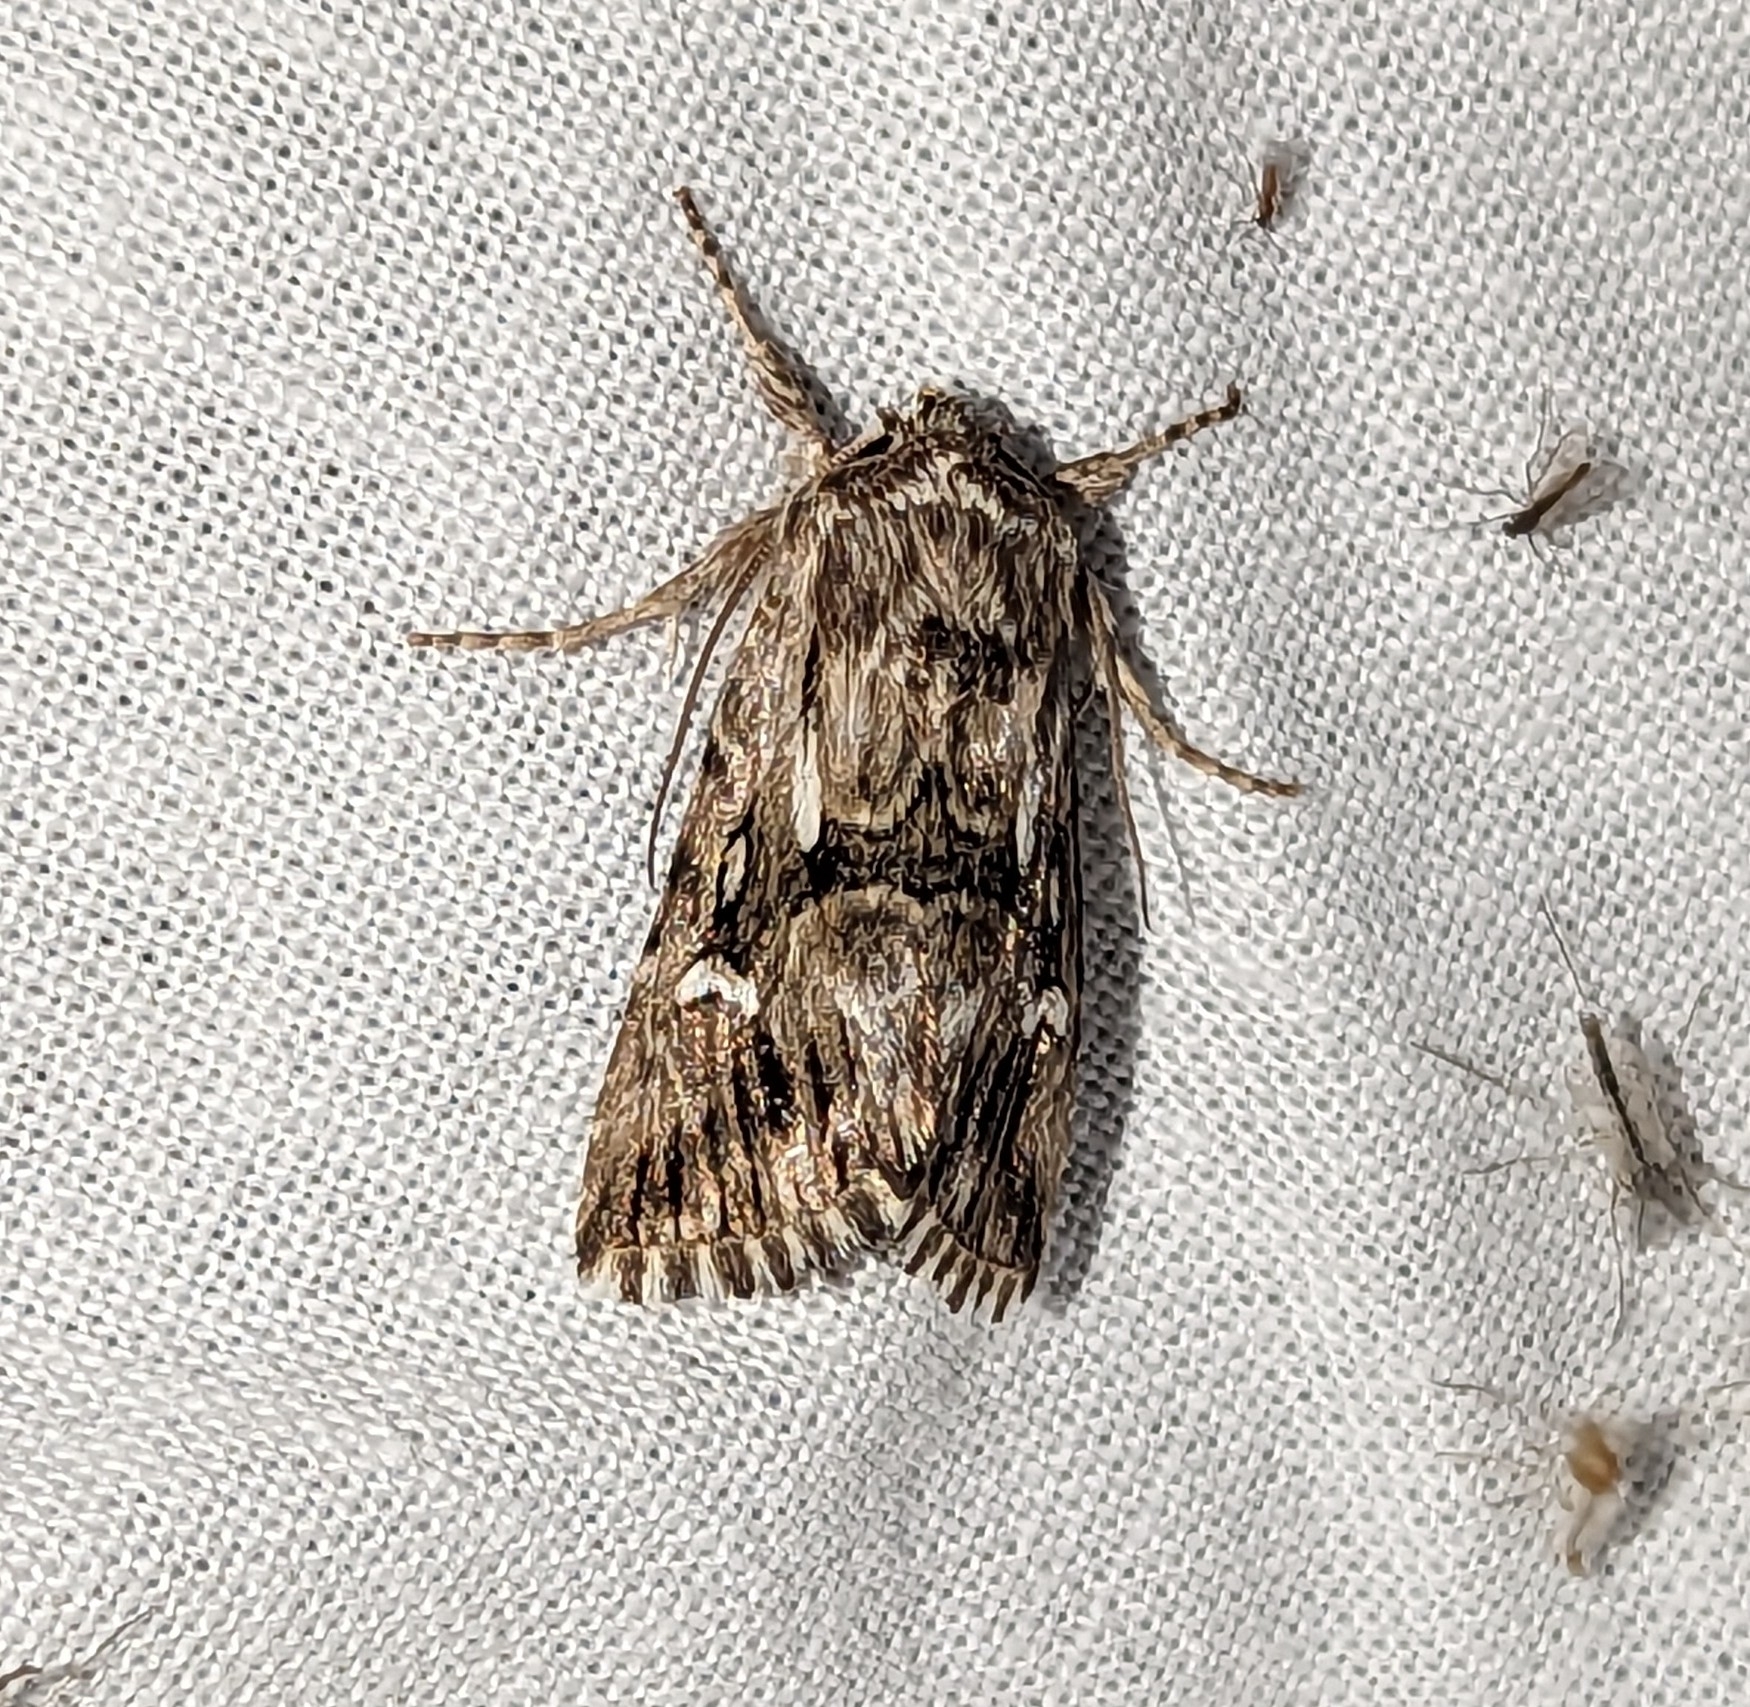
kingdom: Animalia
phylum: Arthropoda
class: Insecta
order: Lepidoptera
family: Noctuidae
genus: Calophasia
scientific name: Calophasia lunula
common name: Toadflax brocade
